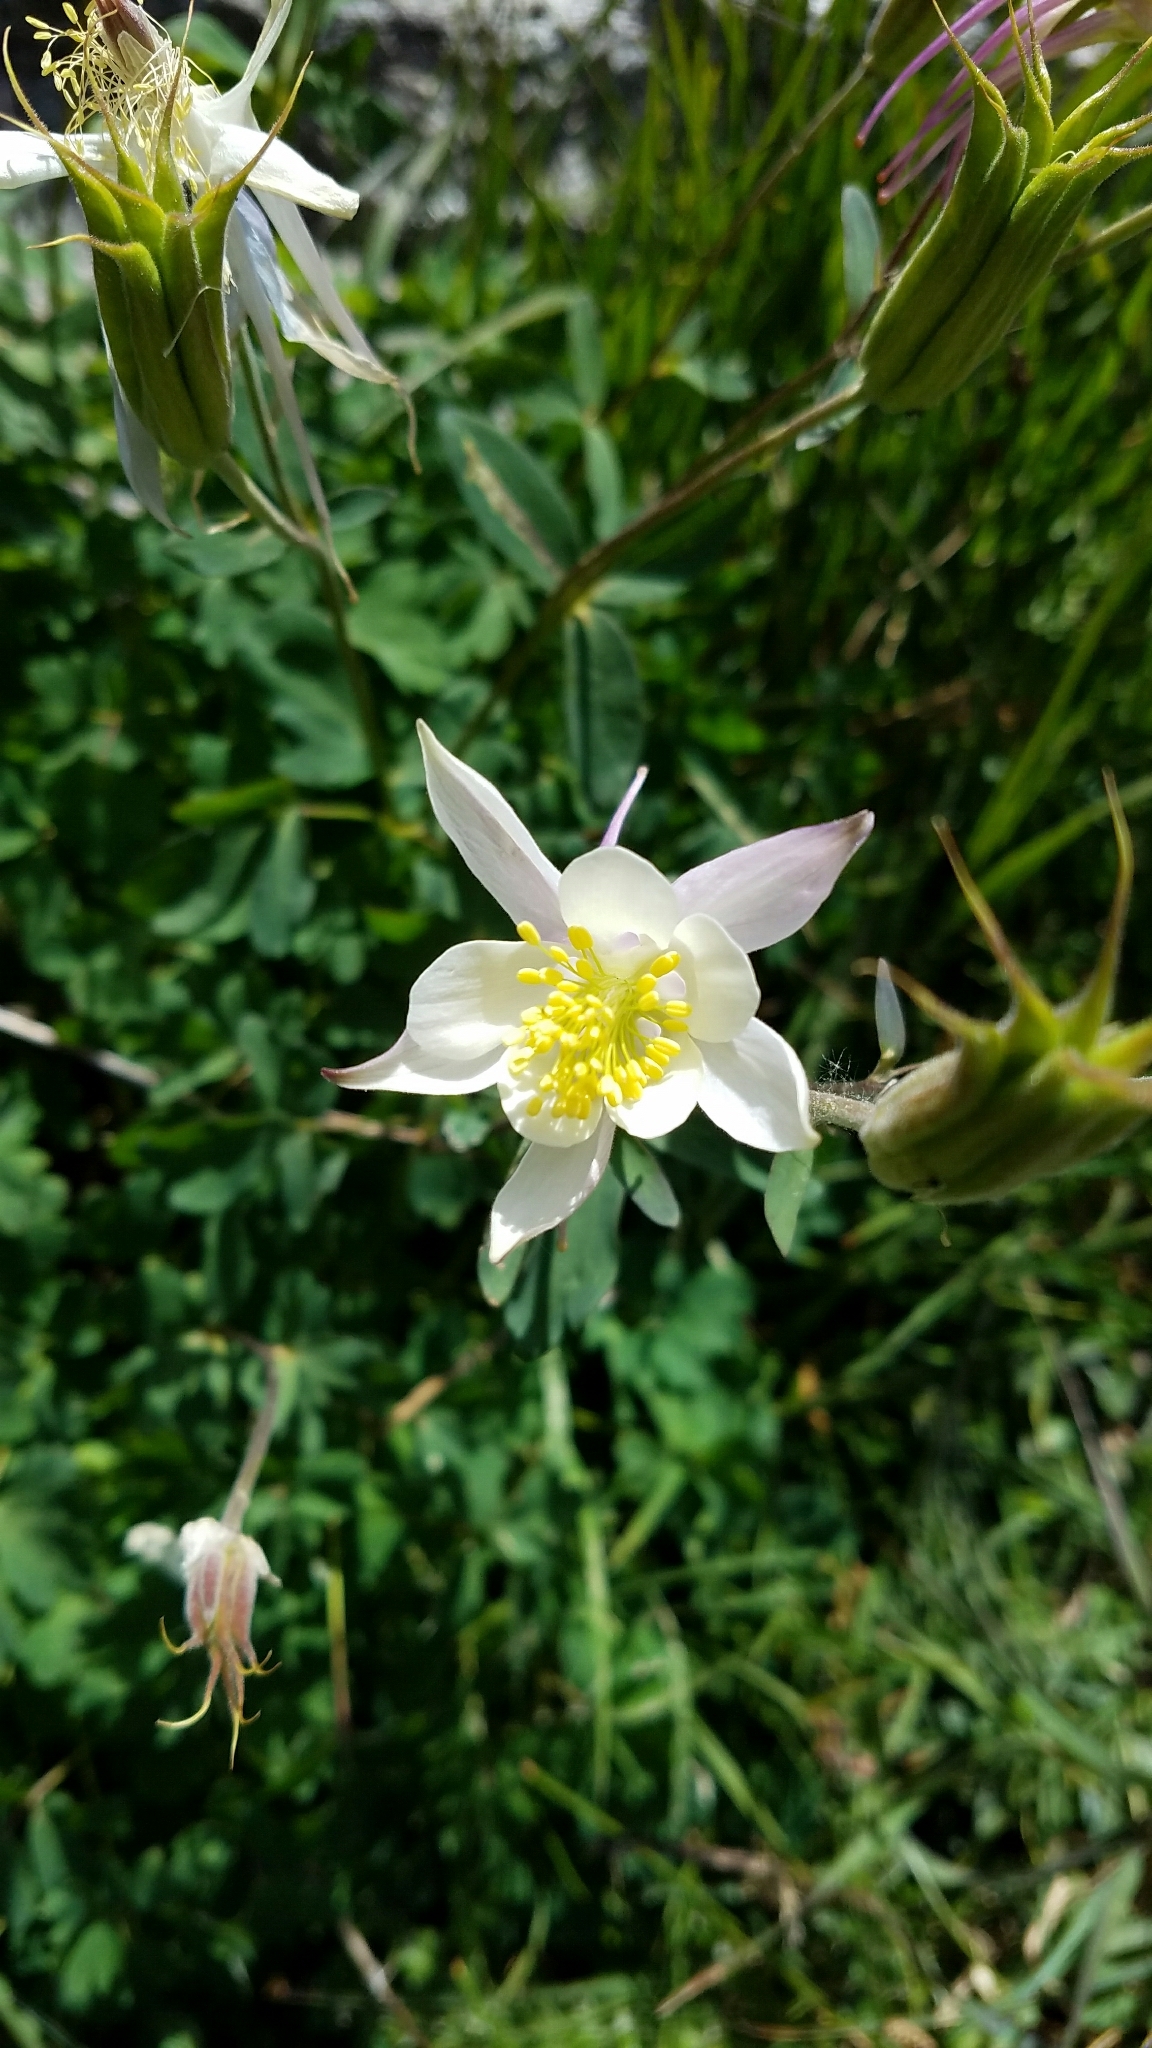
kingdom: Plantae
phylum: Tracheophyta
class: Magnoliopsida
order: Ranunculales
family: Ranunculaceae
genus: Aquilegia
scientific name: Aquilegia coerulea
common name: Rocky mountain columbine
